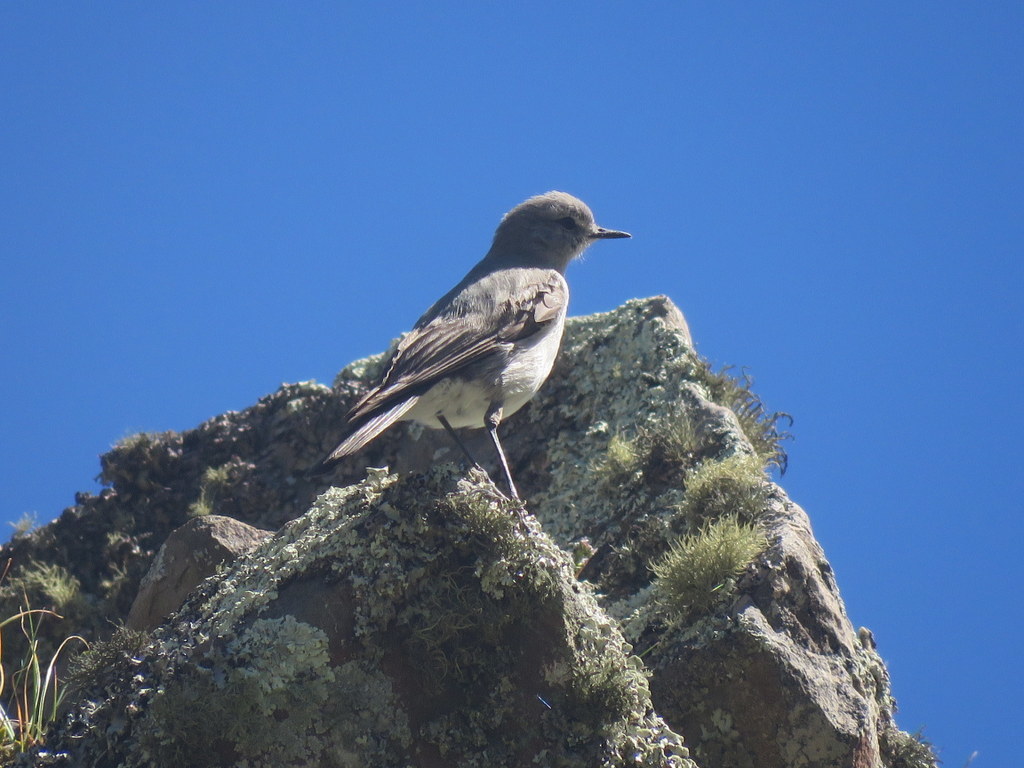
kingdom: Animalia
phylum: Chordata
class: Aves
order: Passeriformes
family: Tyrannidae
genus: Muscisaxicola
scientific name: Muscisaxicola cinereus
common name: Cinereous ground tyrant
